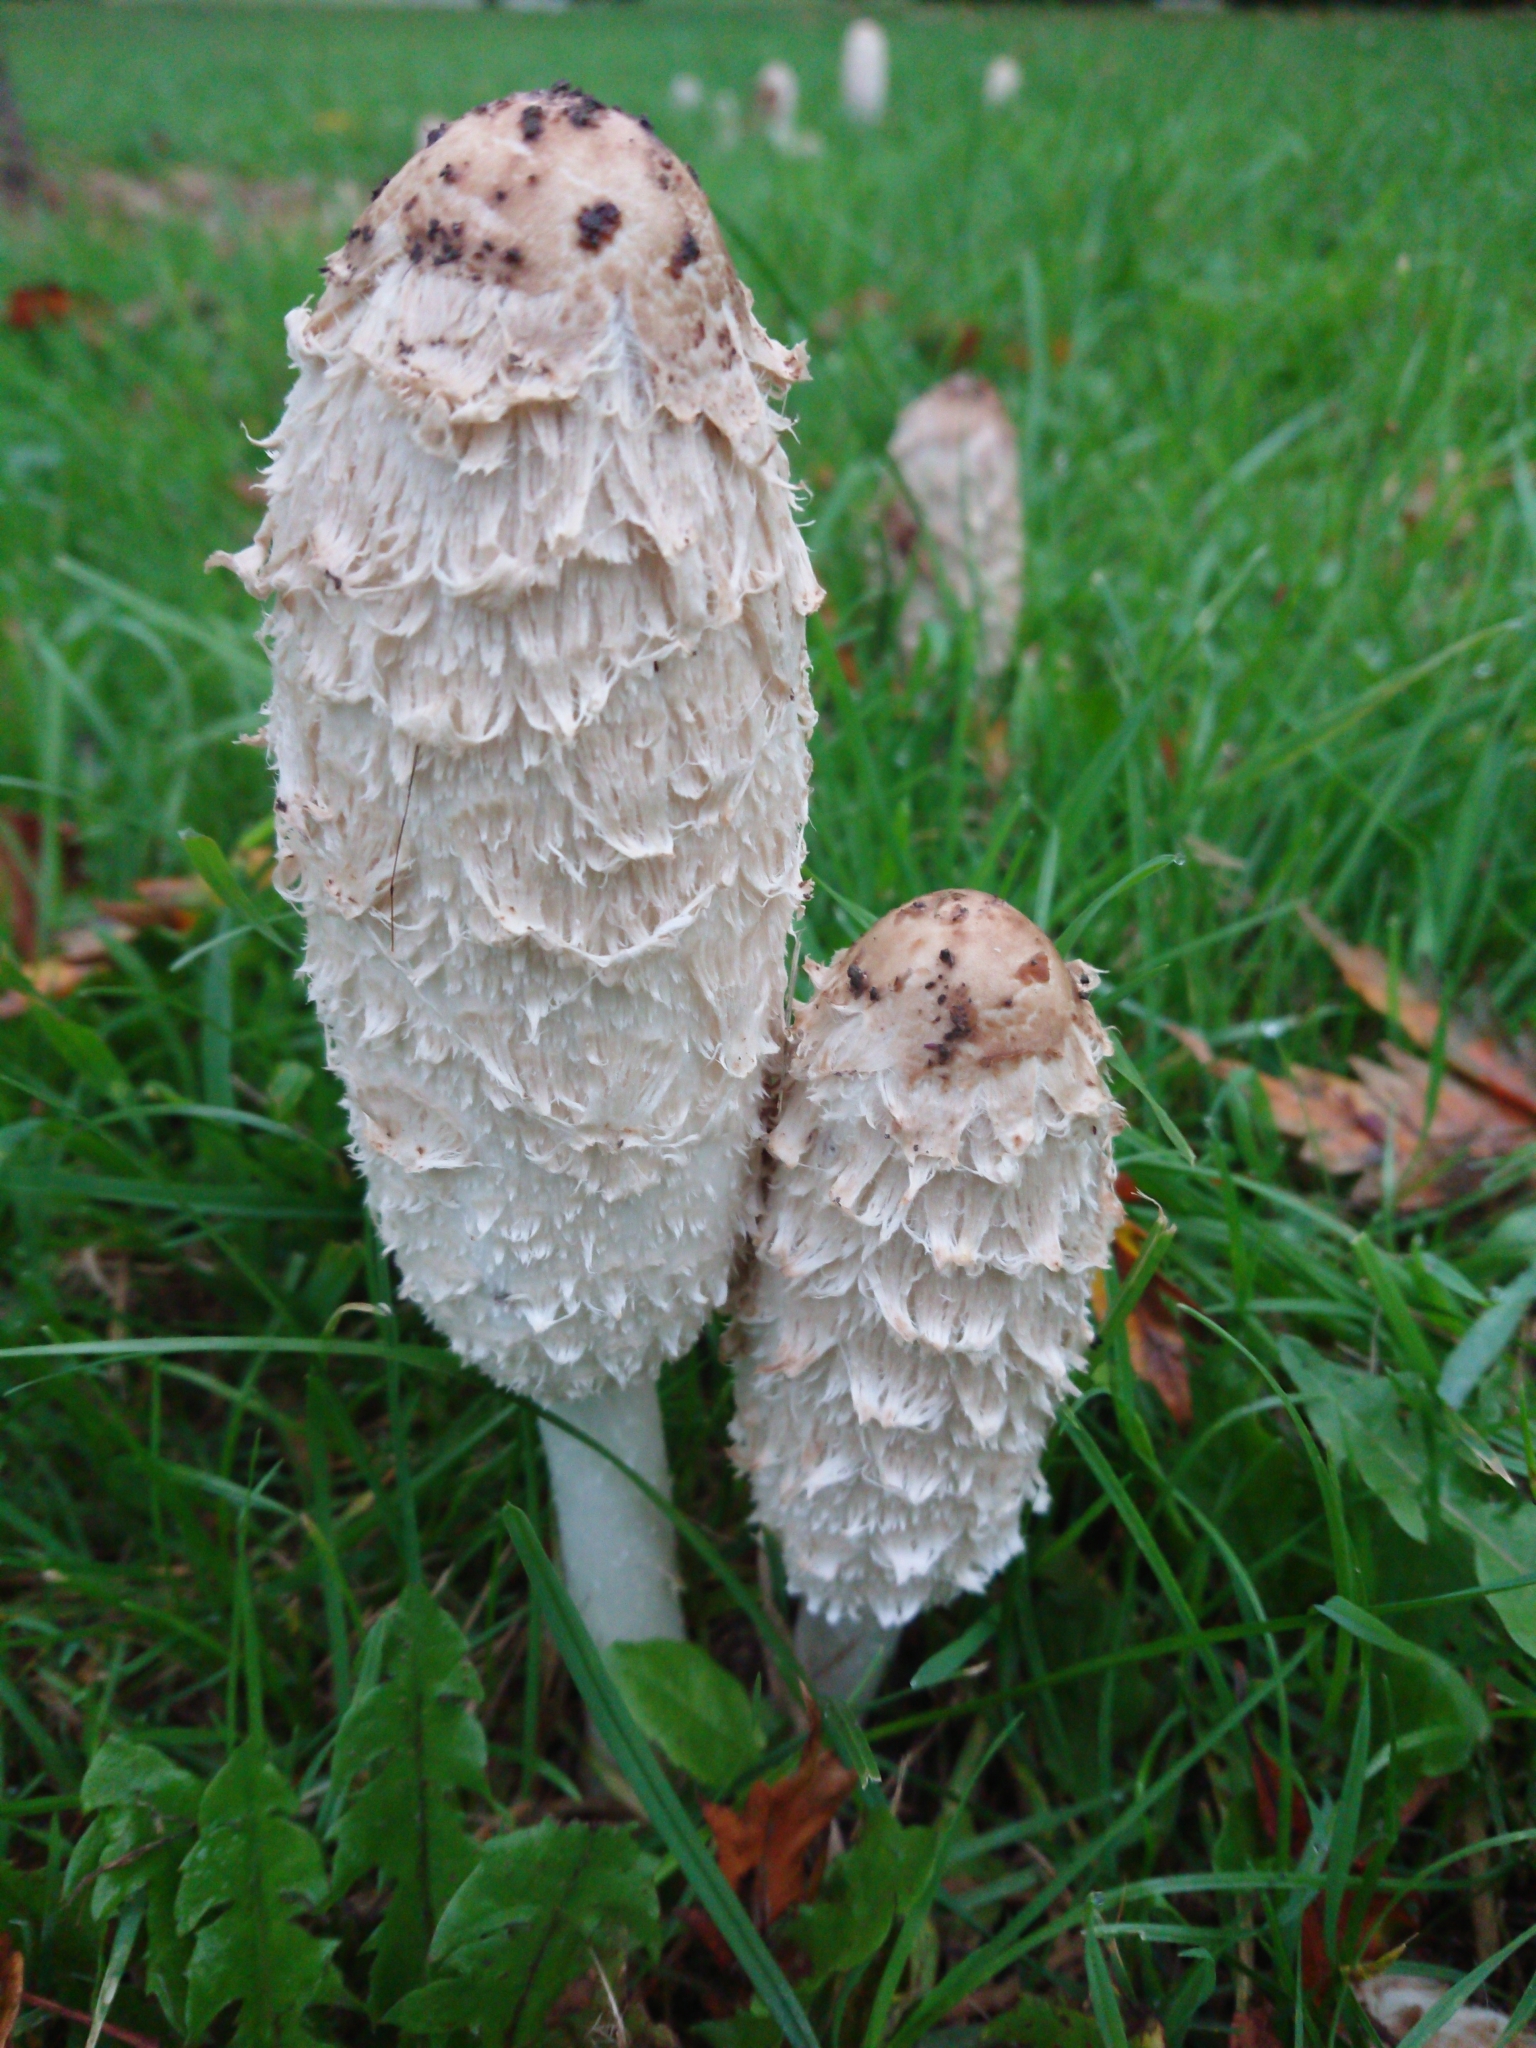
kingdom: Fungi
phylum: Basidiomycota
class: Agaricomycetes
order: Agaricales
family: Agaricaceae
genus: Coprinus
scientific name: Coprinus comatus
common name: Lawyer's wig
